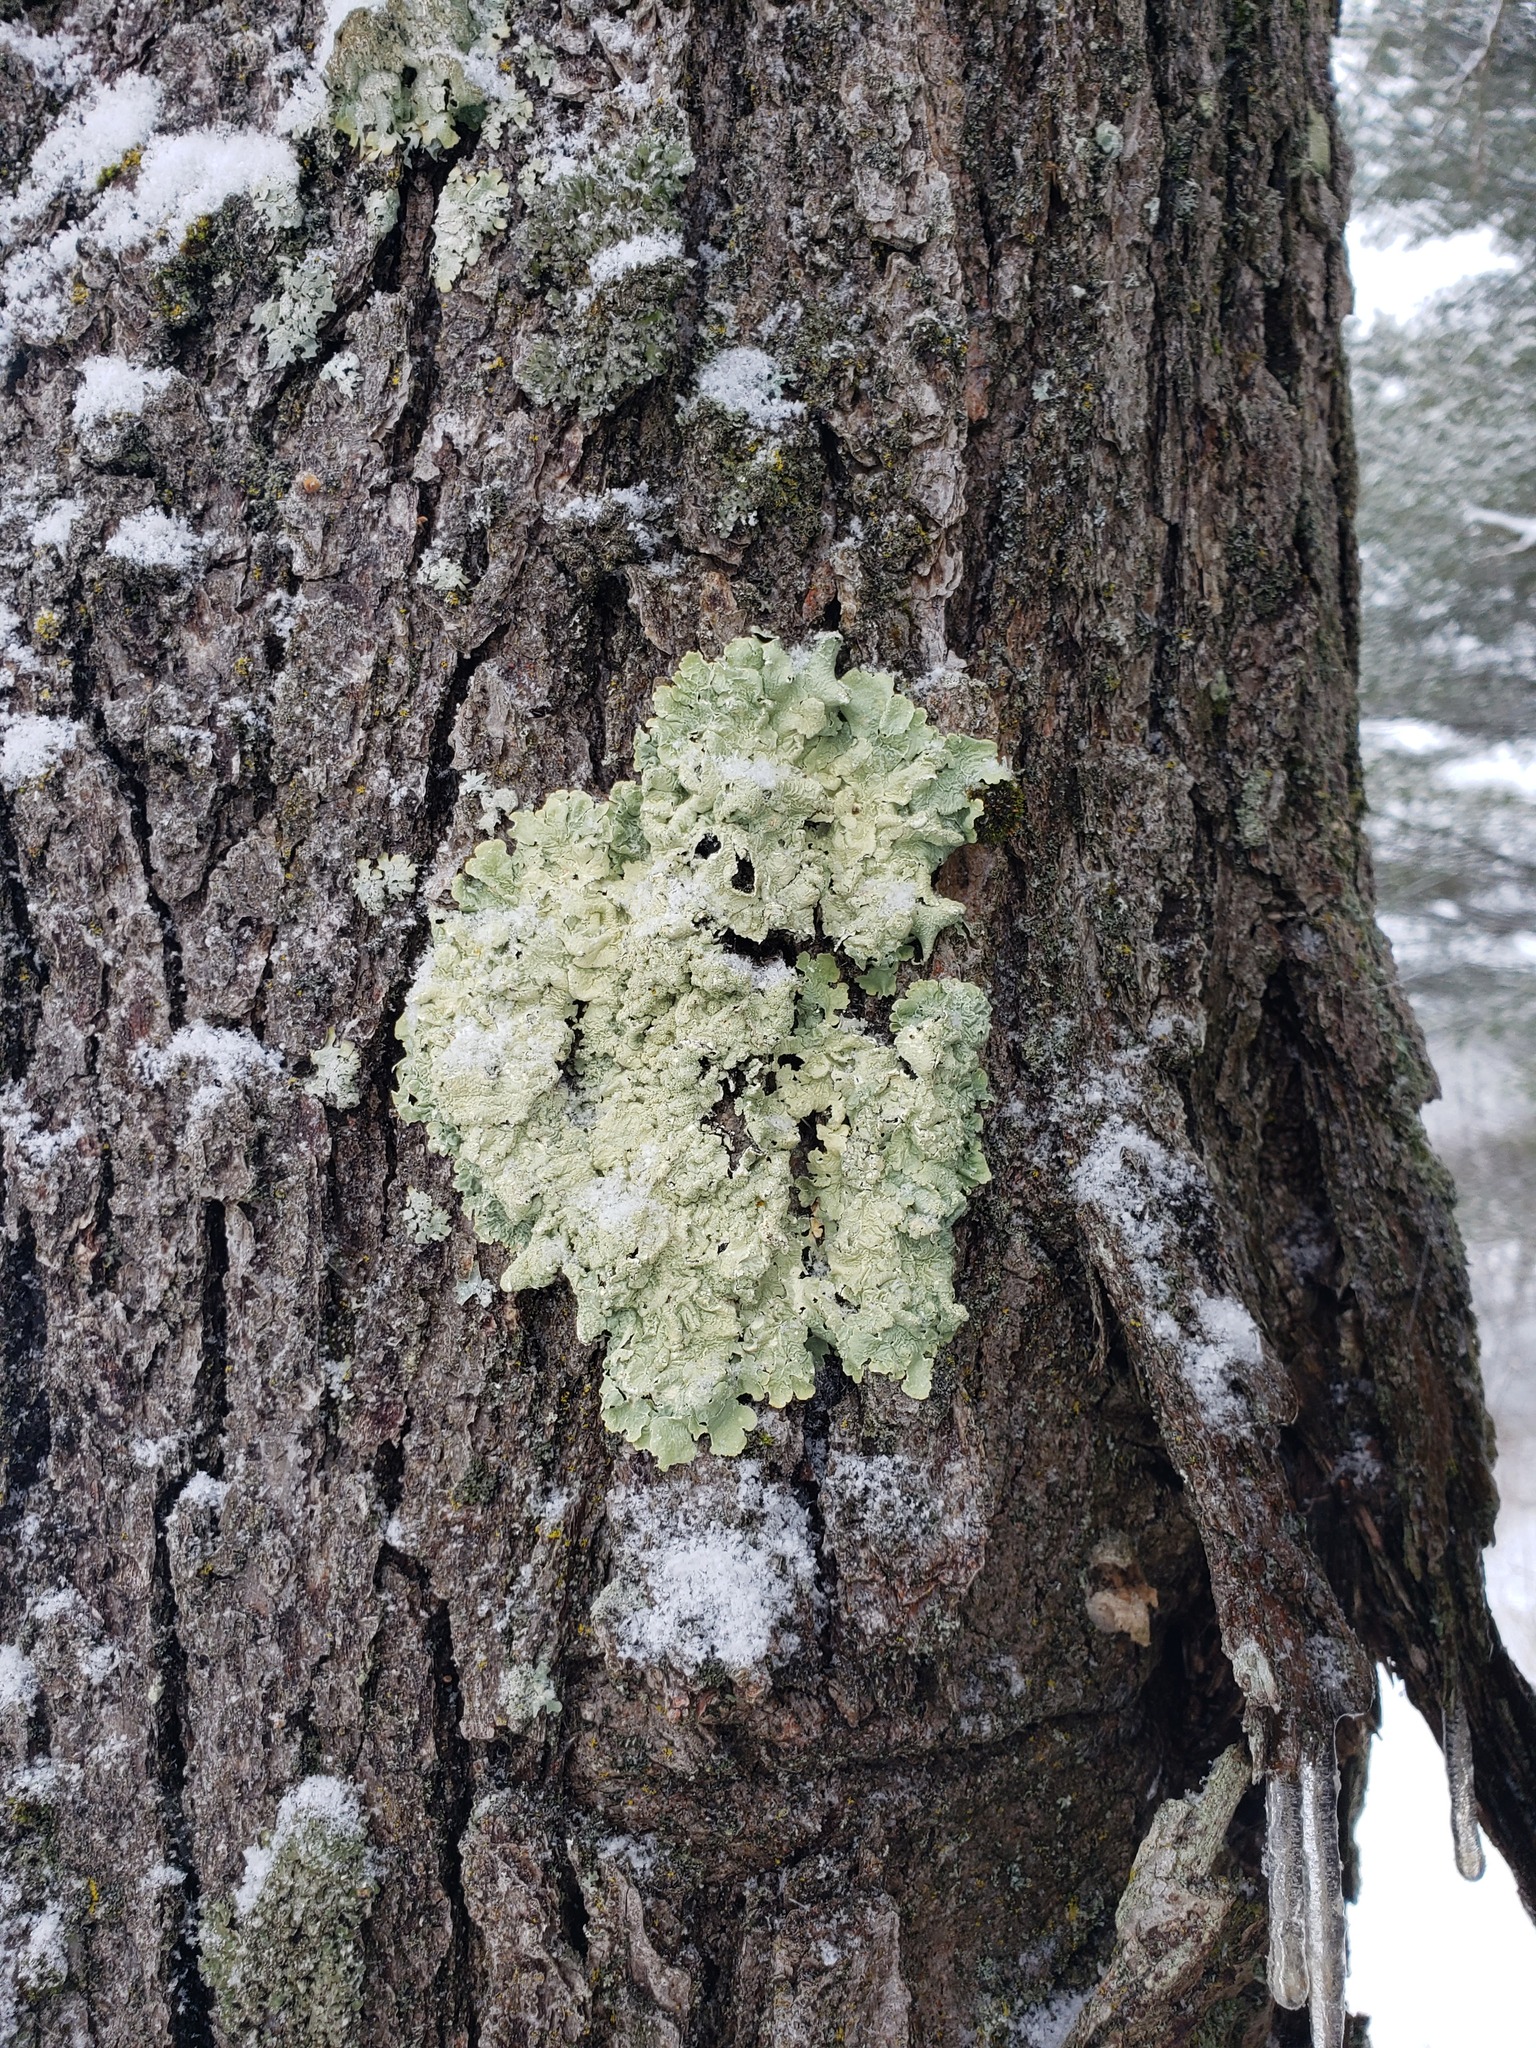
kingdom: Fungi
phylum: Ascomycota
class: Lecanoromycetes
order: Lecanorales
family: Parmeliaceae
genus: Flavoparmelia
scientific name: Flavoparmelia caperata
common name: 40-mile per hour lichen
